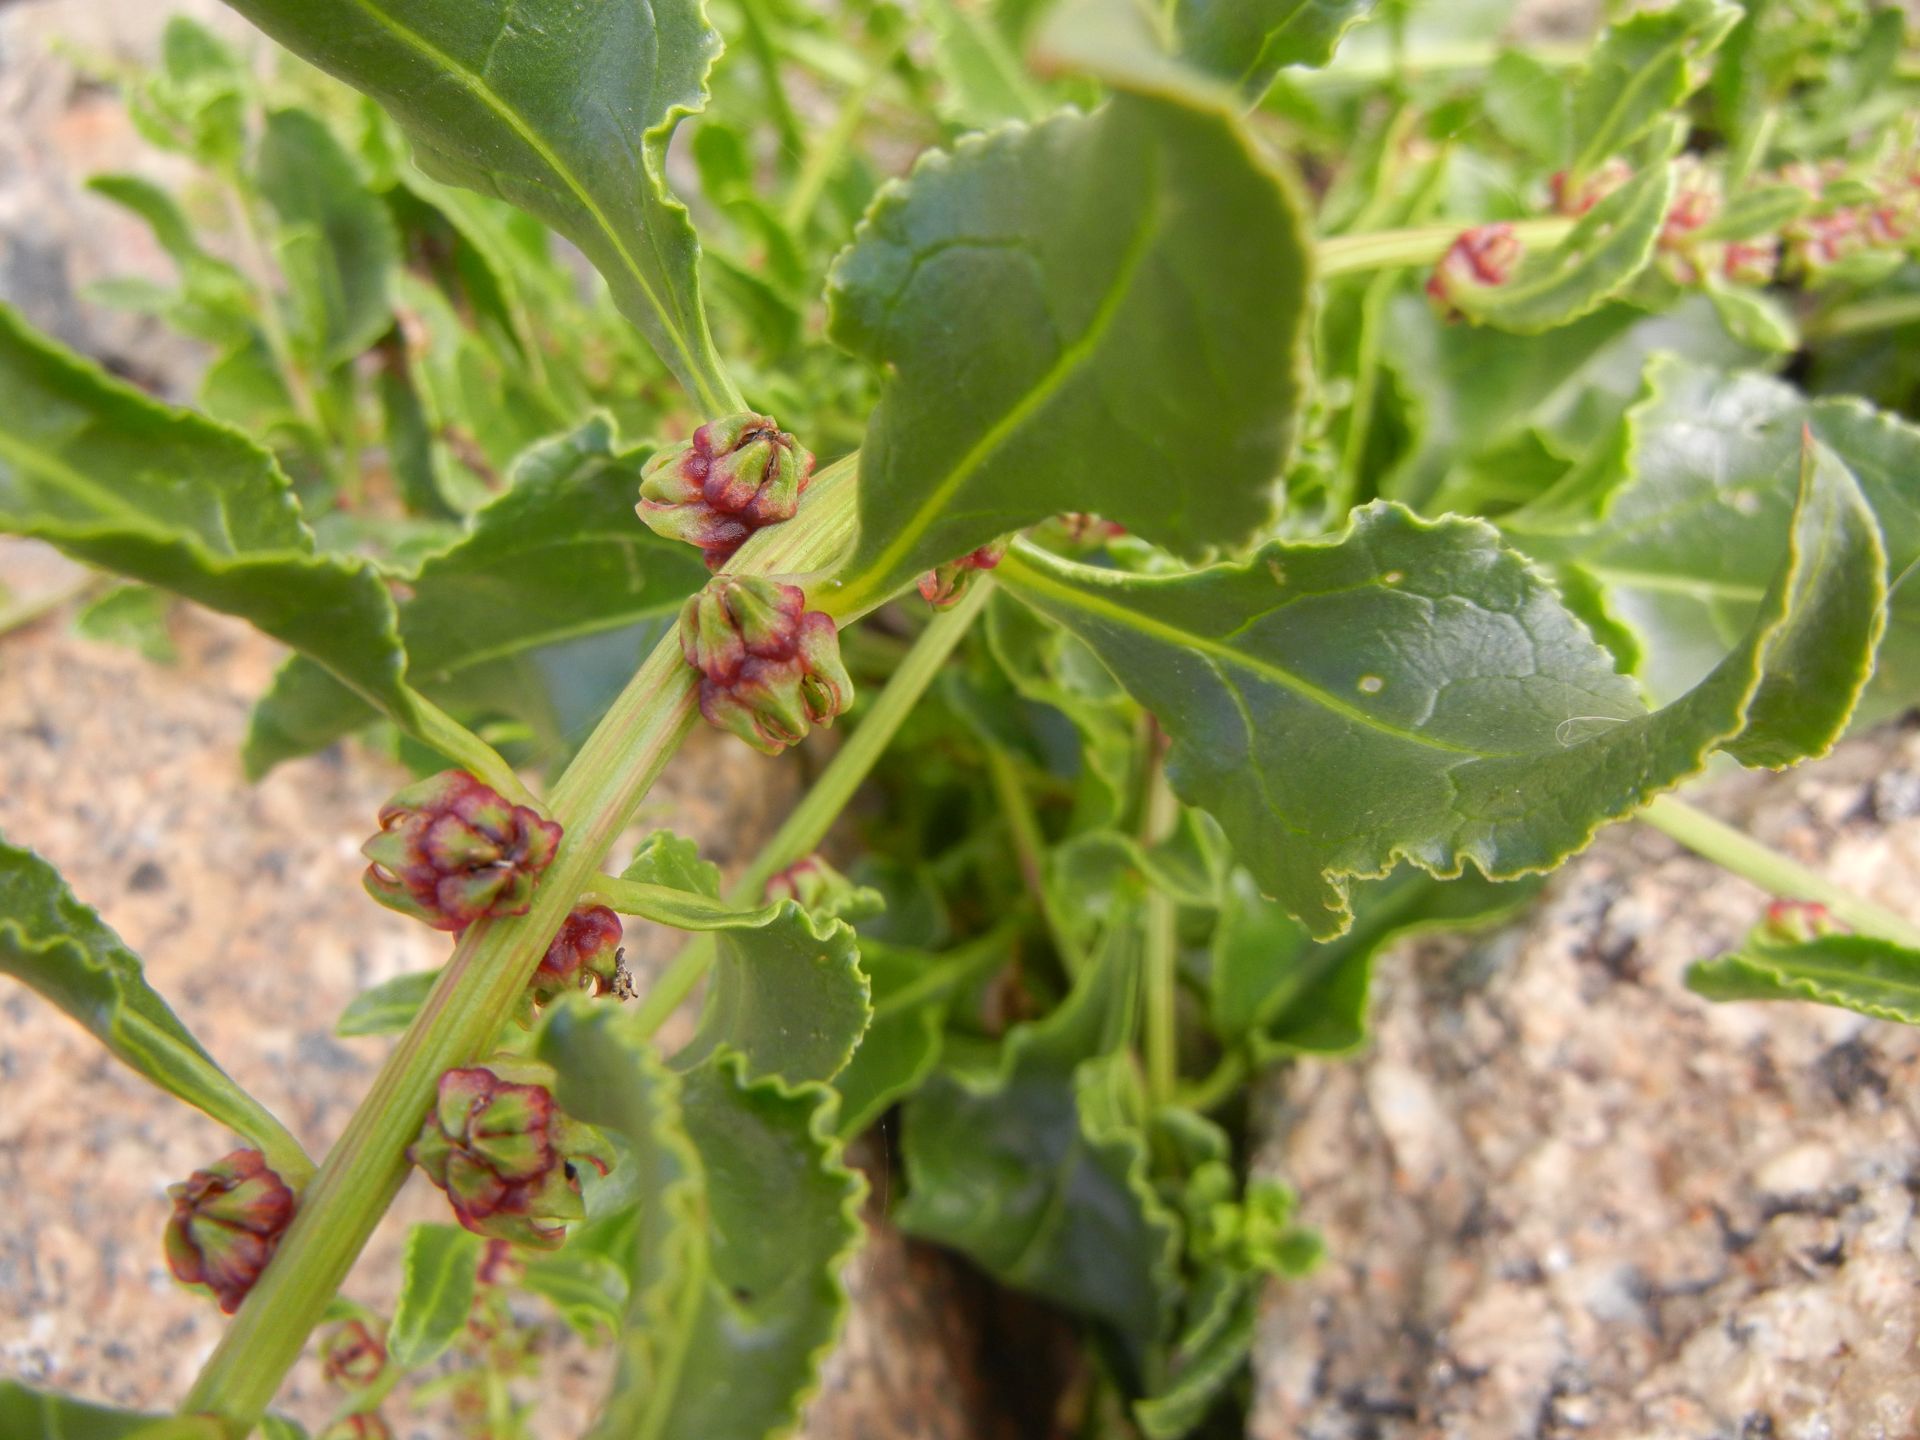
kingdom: Plantae
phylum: Tracheophyta
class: Magnoliopsida
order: Caryophyllales
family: Amaranthaceae
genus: Beta
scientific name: Beta vulgaris
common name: Beet
